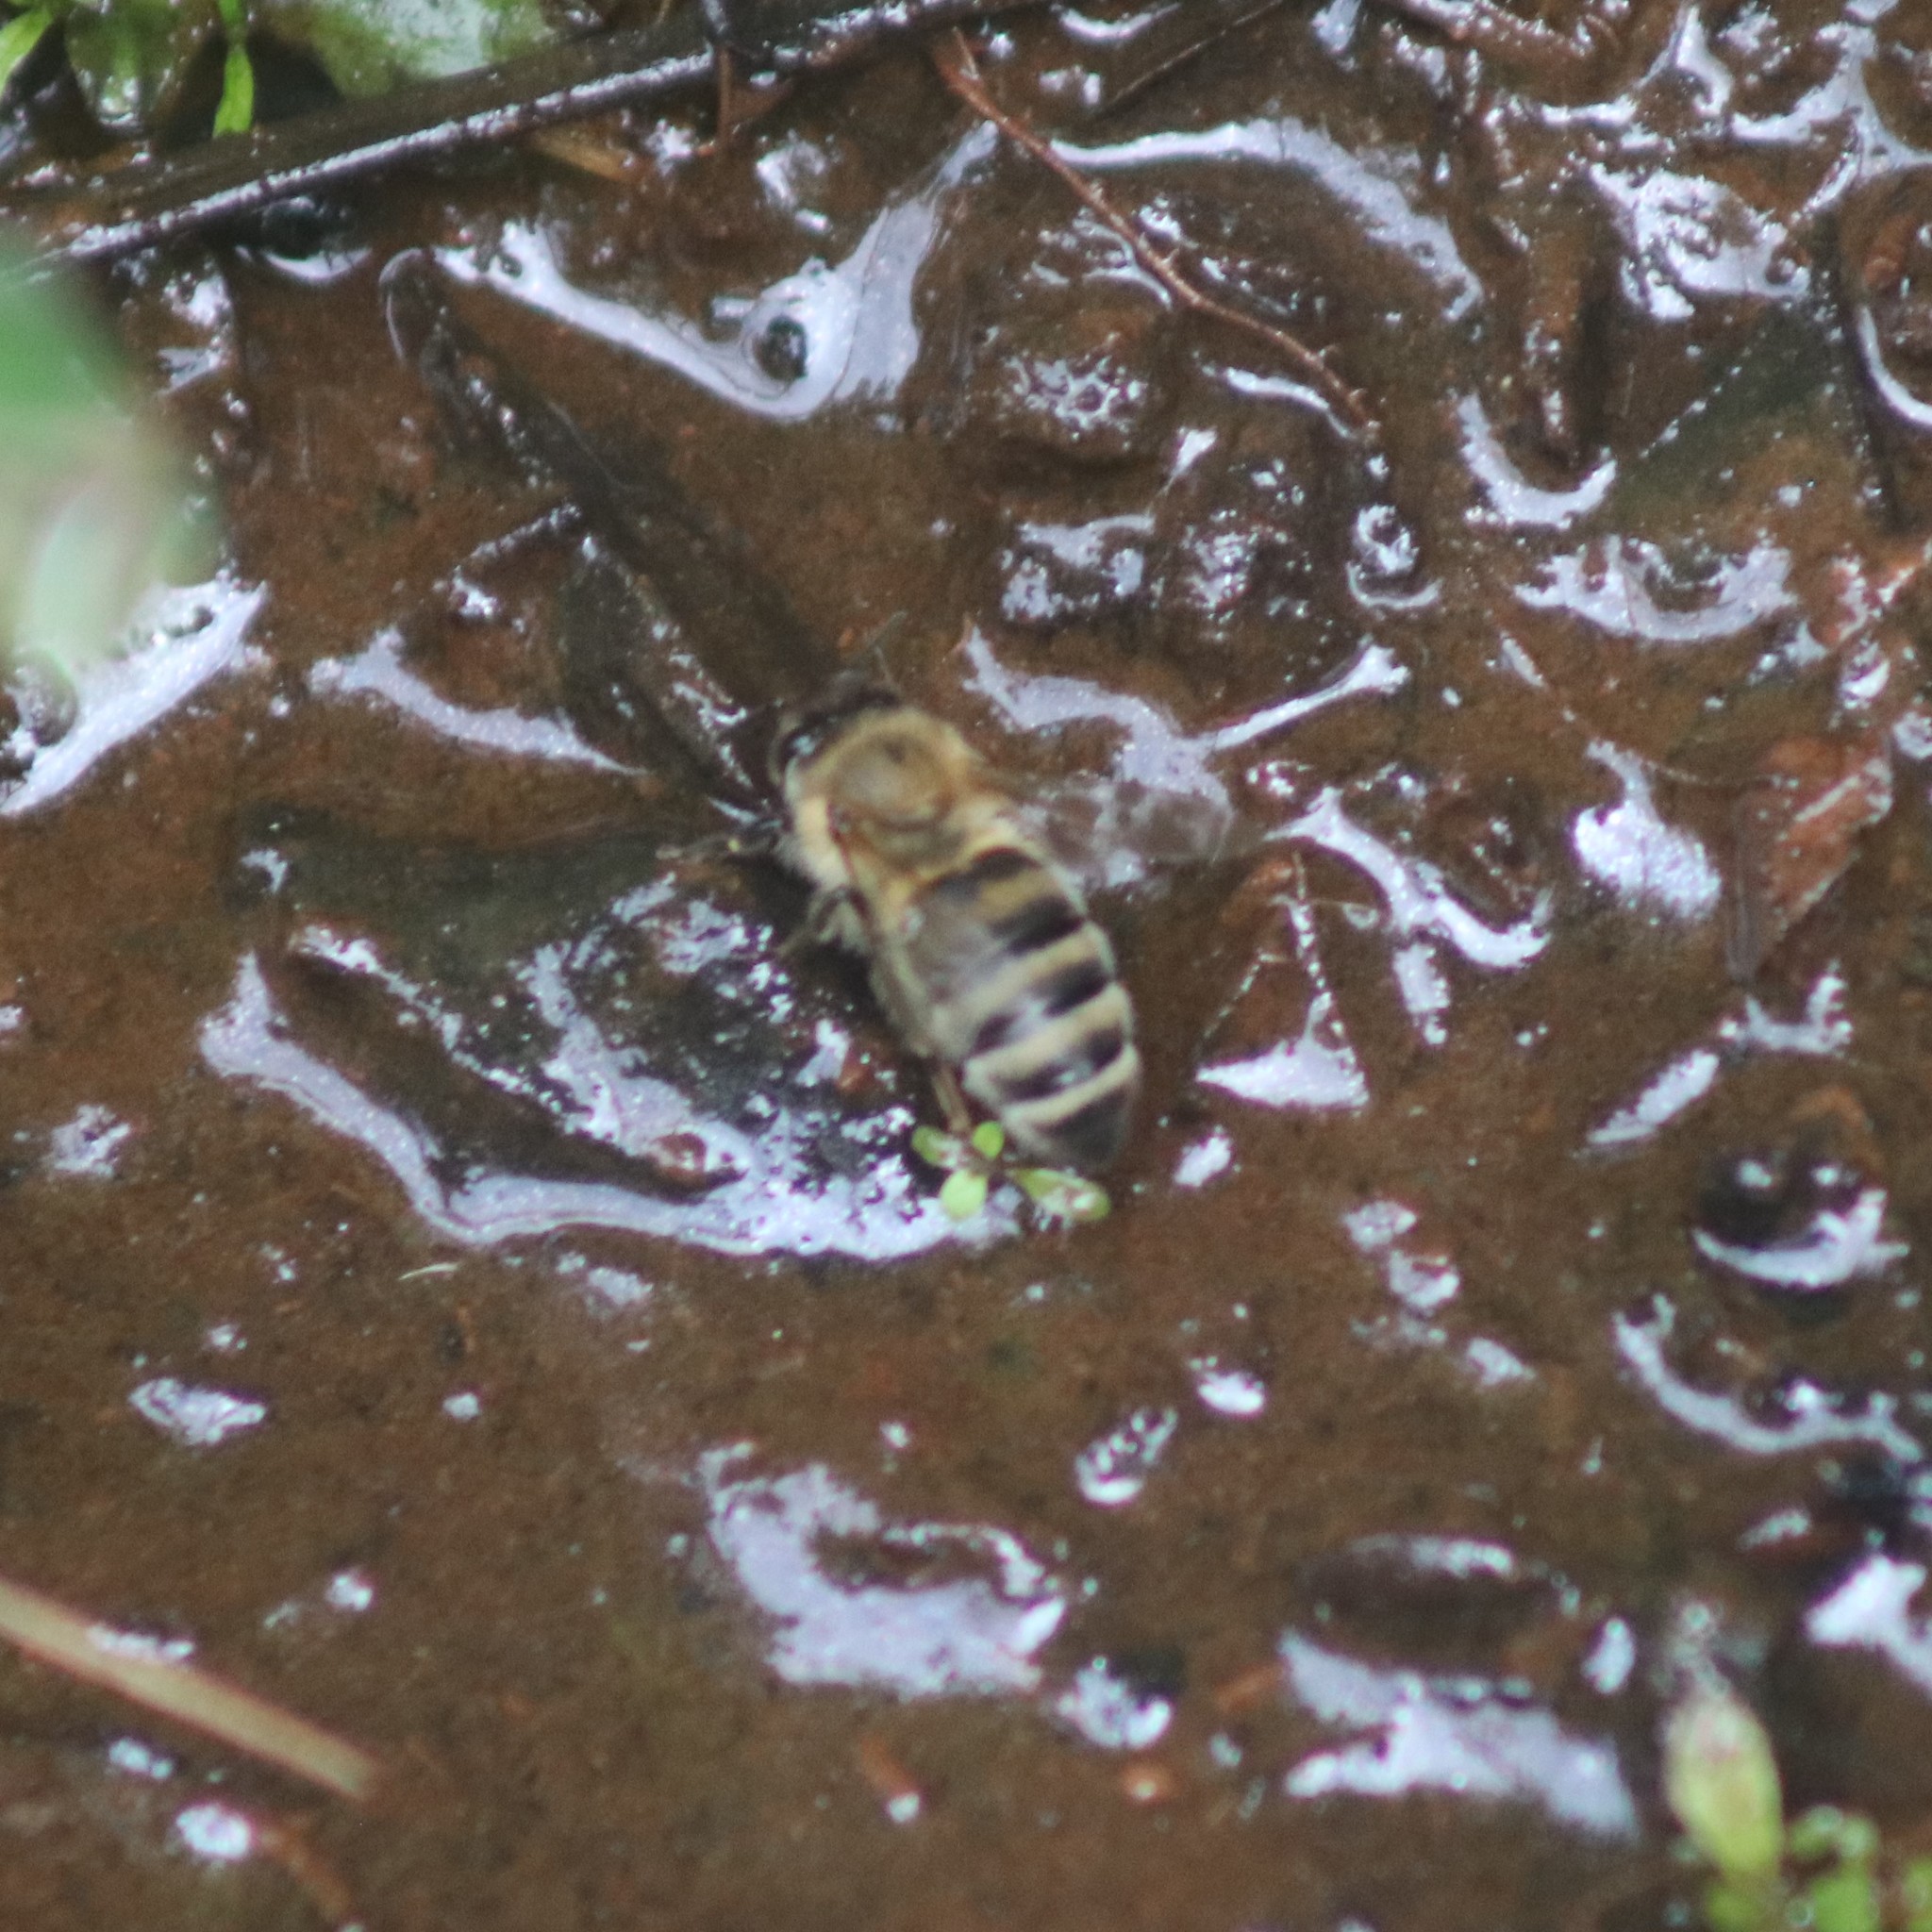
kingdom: Animalia
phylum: Arthropoda
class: Insecta
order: Hymenoptera
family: Apidae
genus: Apis
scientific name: Apis mellifera
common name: Honey bee
